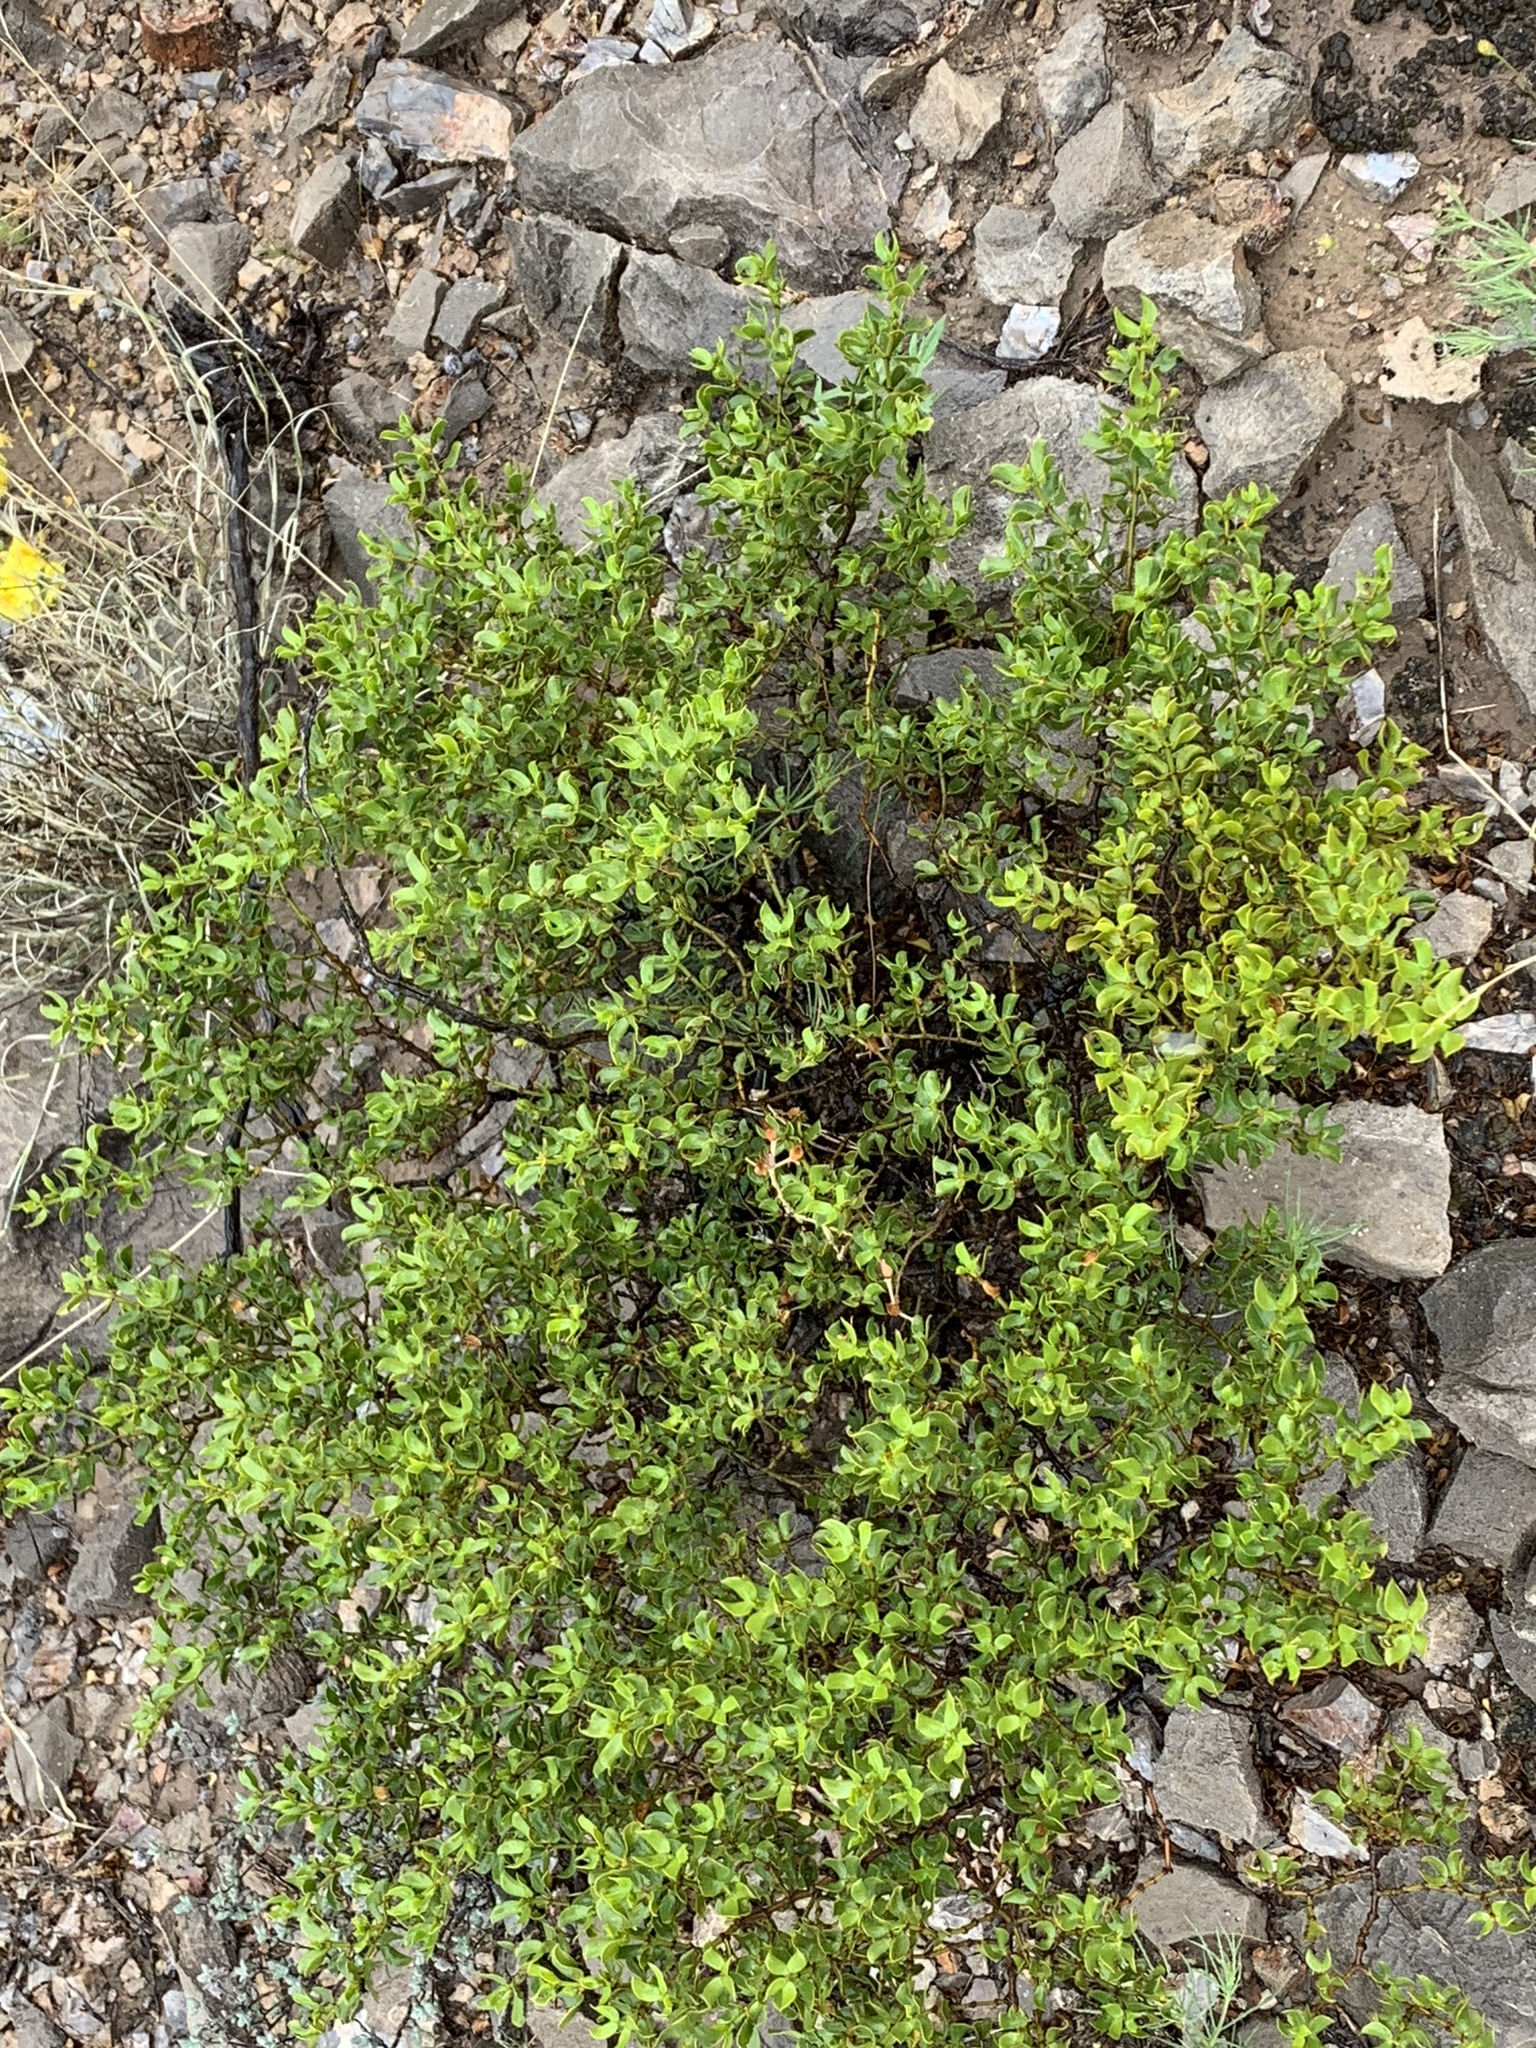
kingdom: Plantae
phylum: Tracheophyta
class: Magnoliopsida
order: Zygophyllales
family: Zygophyllaceae
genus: Larrea
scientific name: Larrea tridentata
